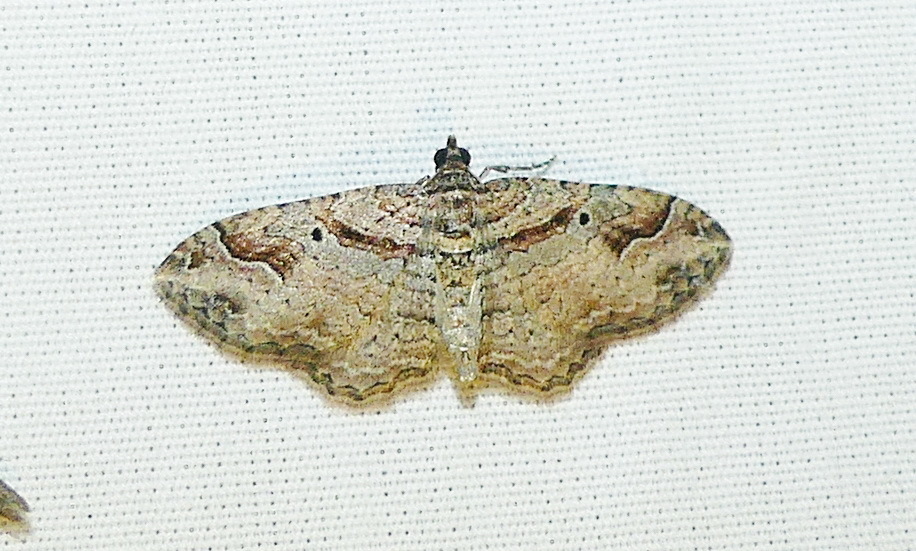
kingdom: Animalia
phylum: Arthropoda
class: Insecta
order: Lepidoptera
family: Geometridae
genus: Costaconvexa
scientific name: Costaconvexa centrostrigaria
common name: Bent-line carpet
